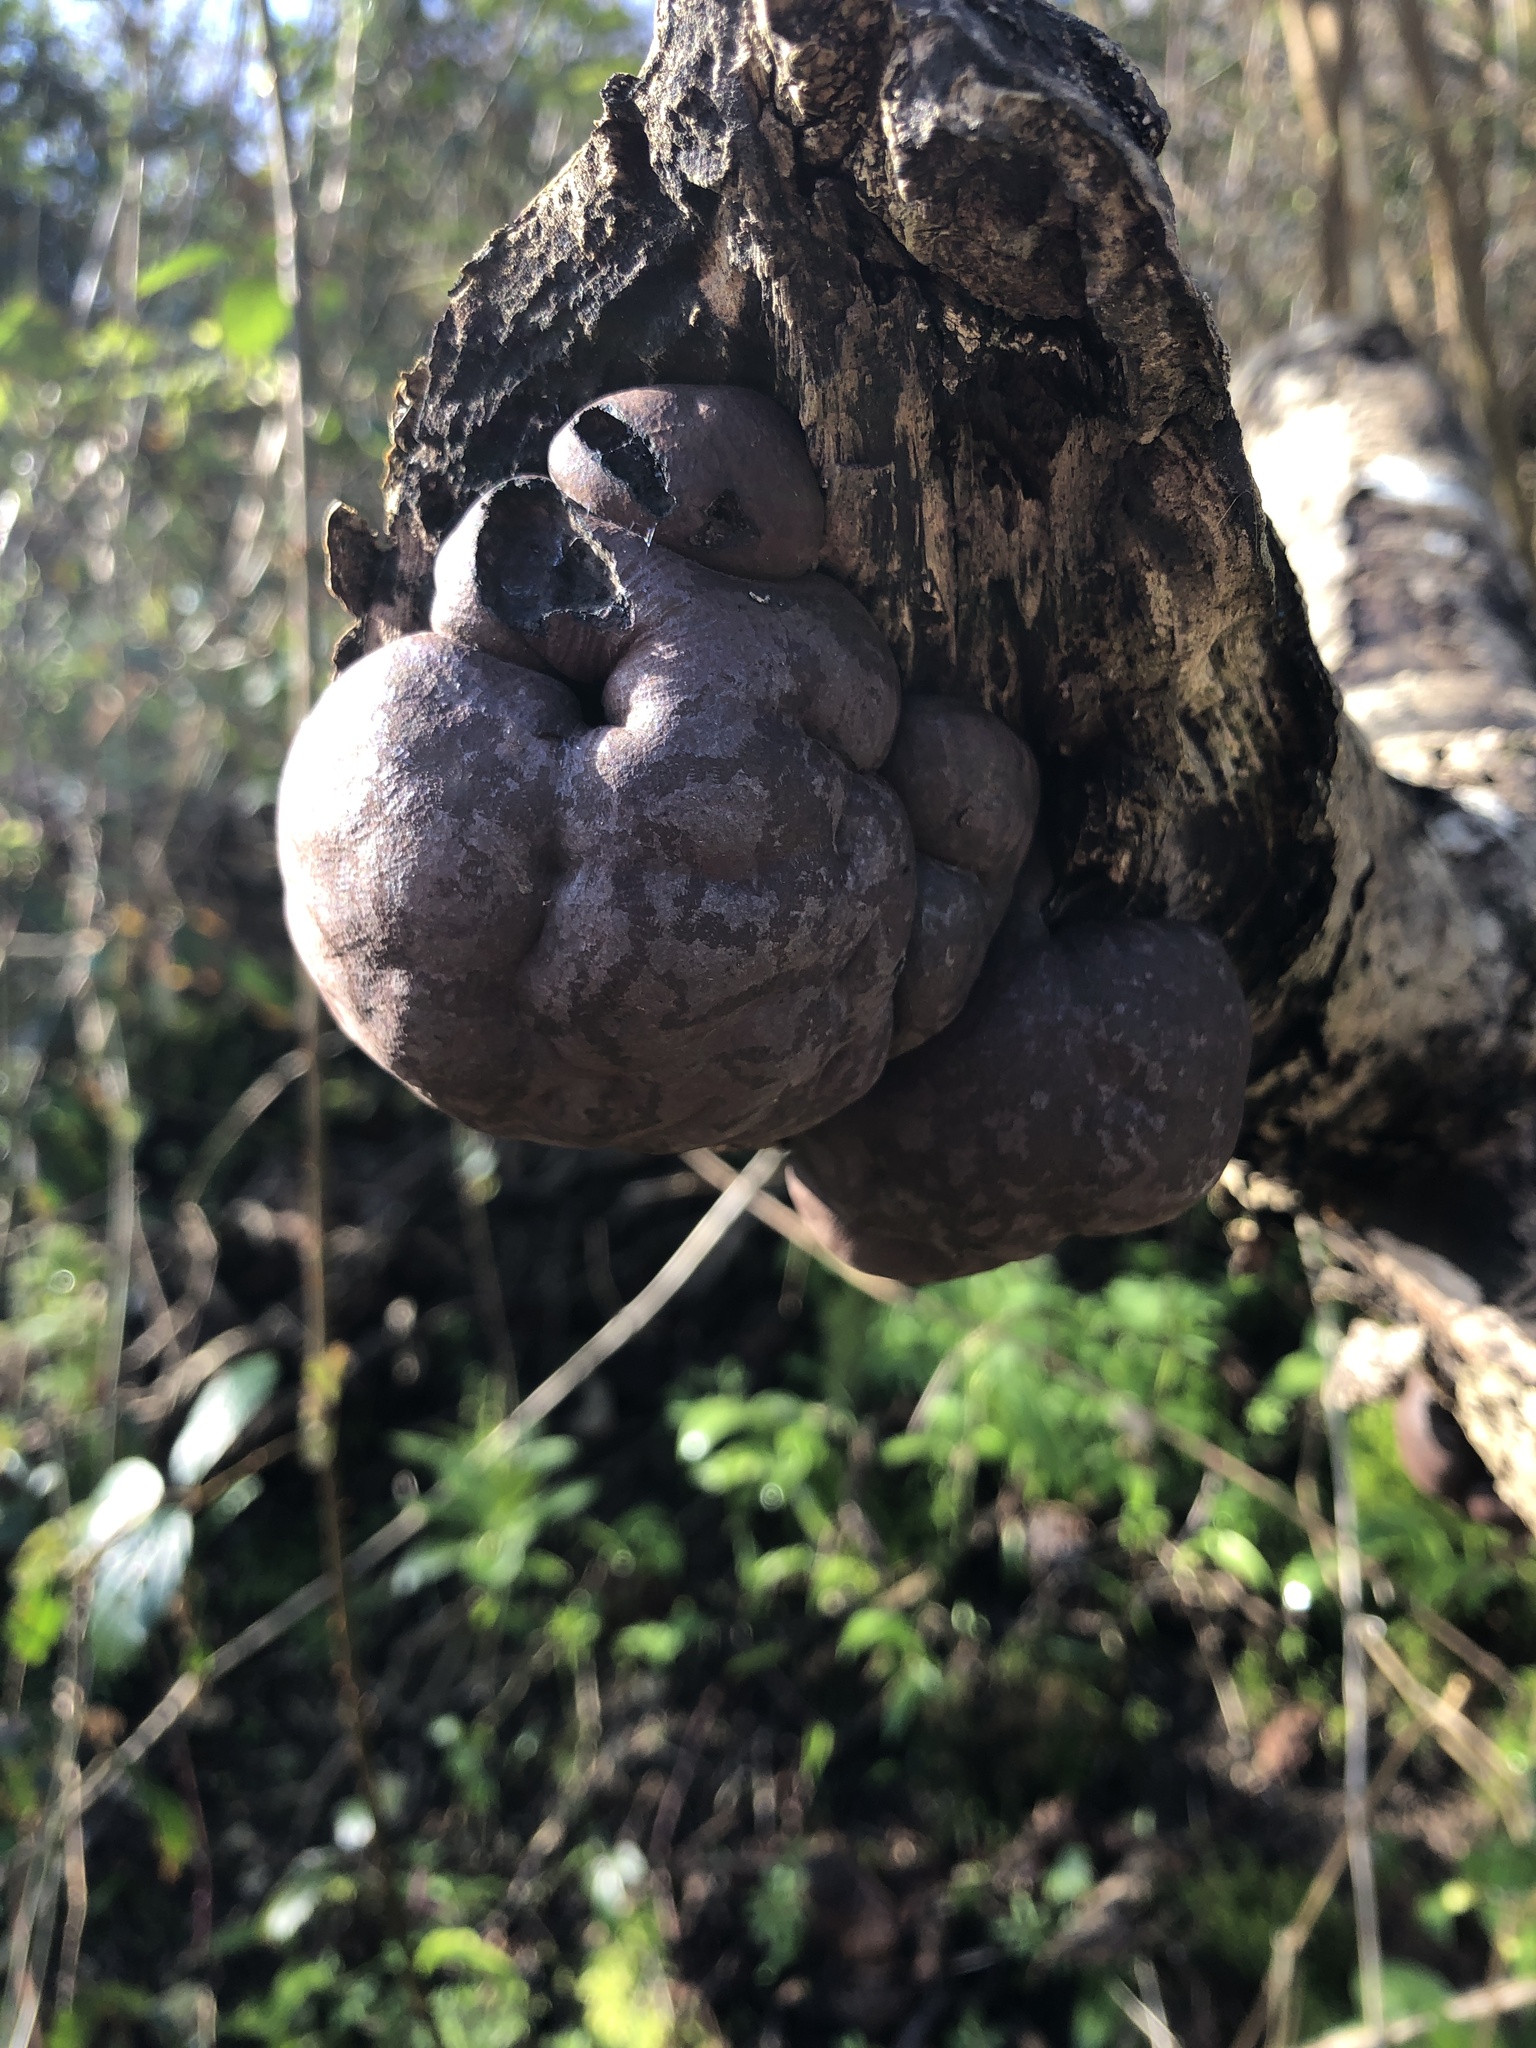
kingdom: Fungi
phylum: Ascomycota
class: Sordariomycetes
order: Xylariales
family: Hypoxylaceae
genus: Daldinia
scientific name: Daldinia concentrica
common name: Cramp balls
